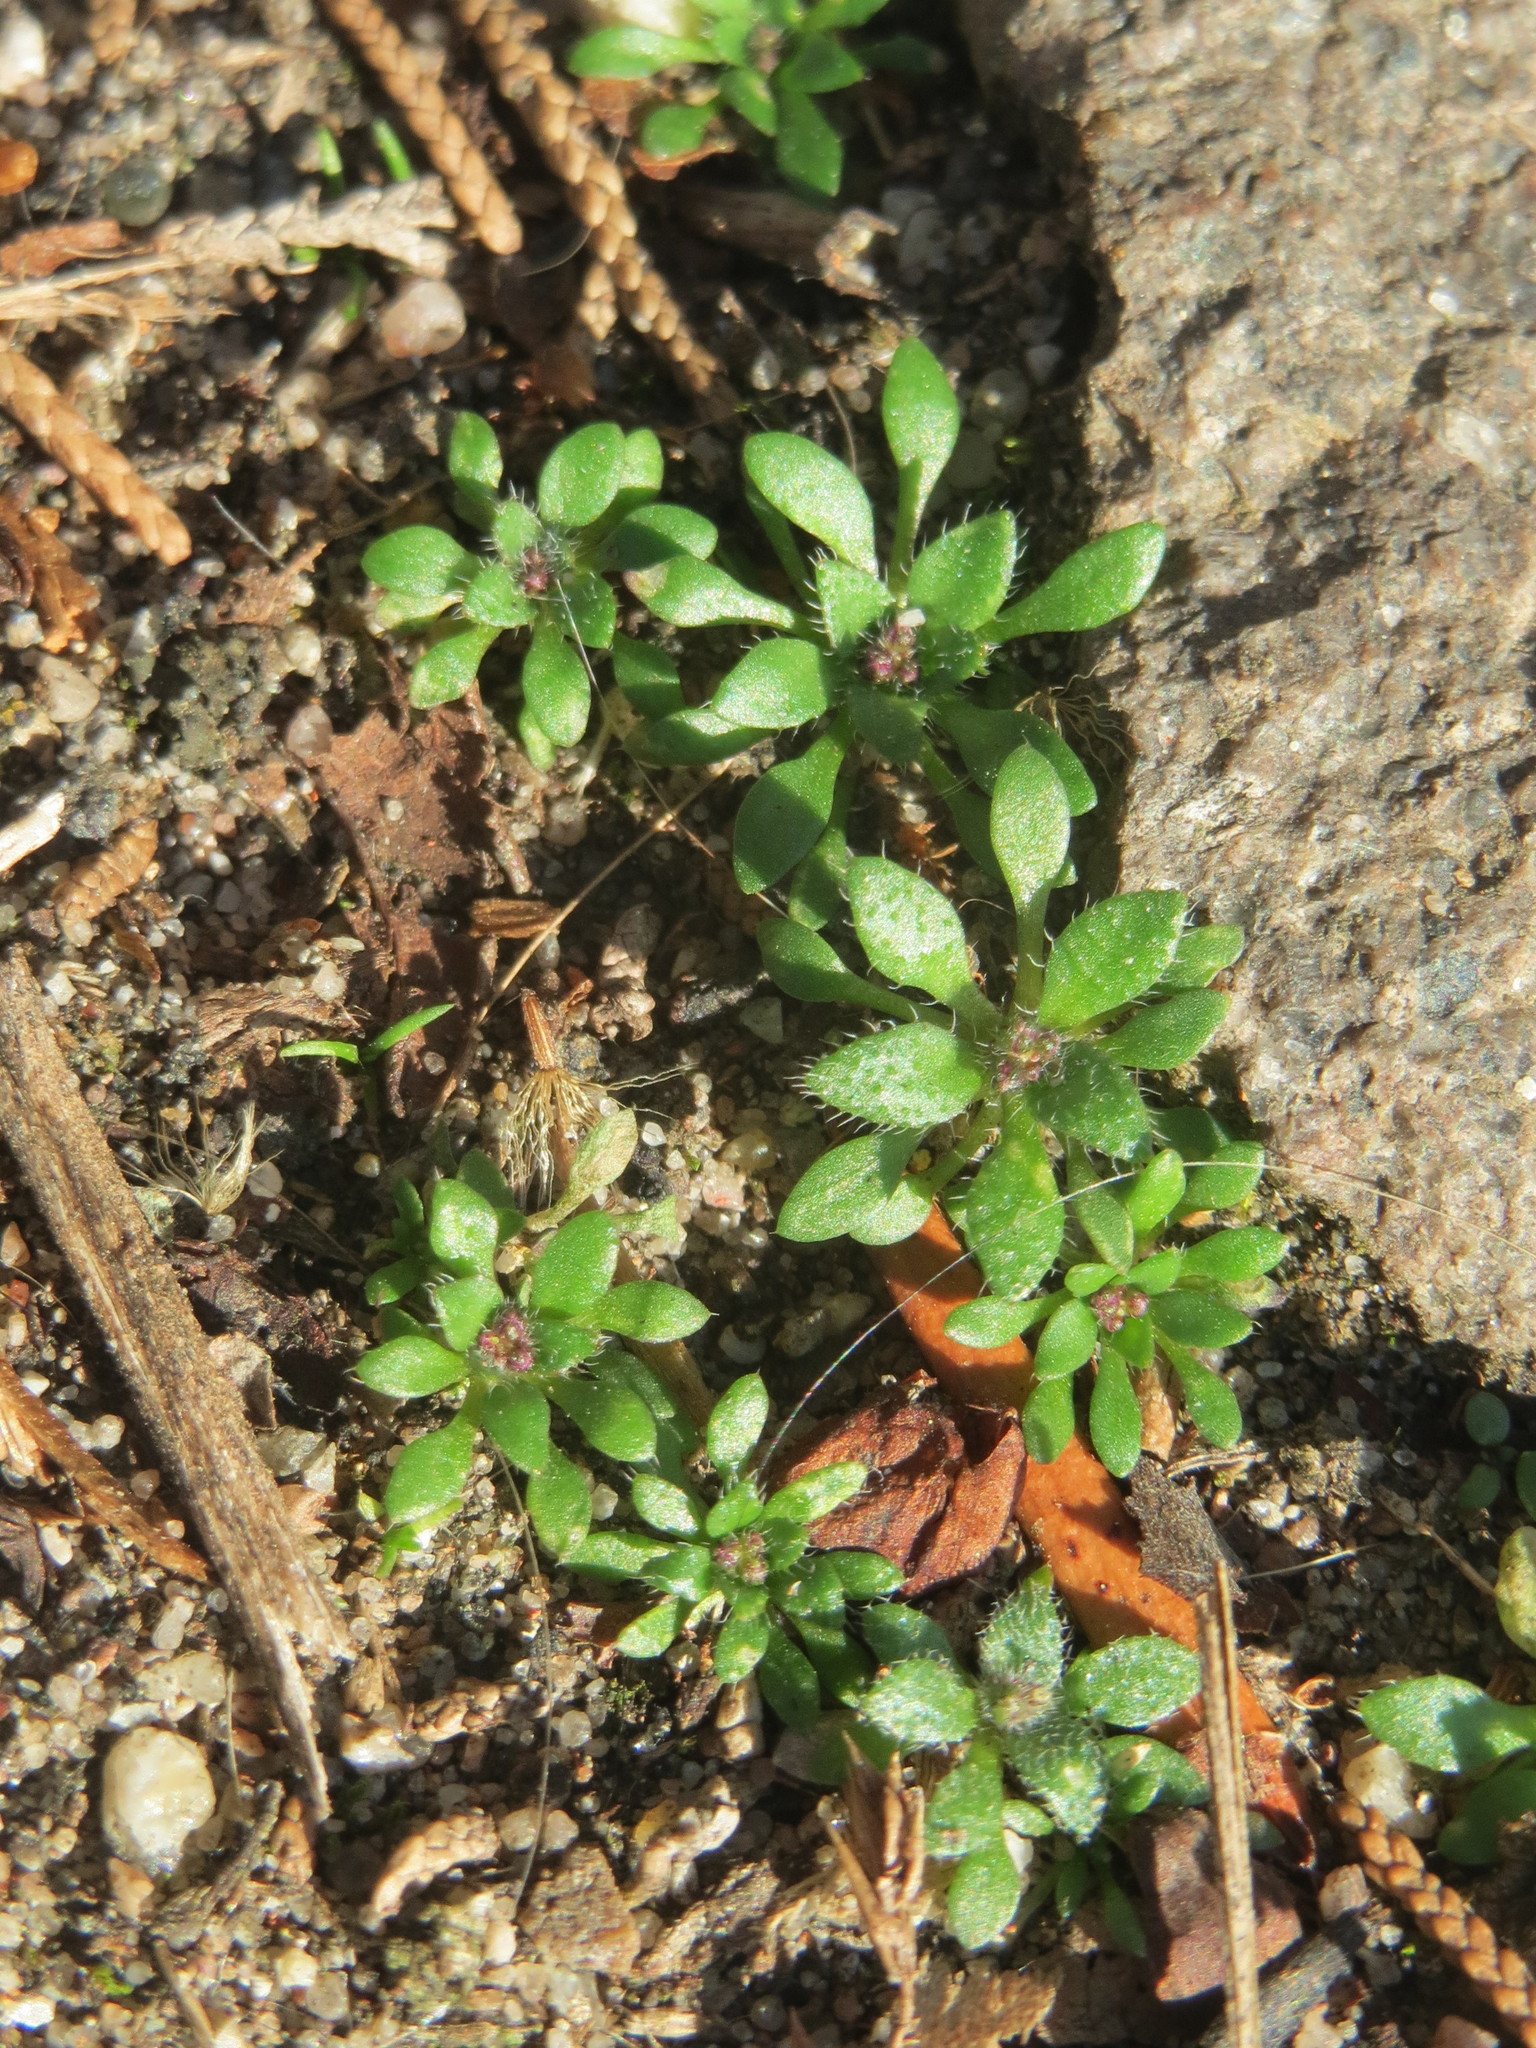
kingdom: Plantae
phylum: Tracheophyta
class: Magnoliopsida
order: Brassicales
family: Brassicaceae
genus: Draba
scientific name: Draba verna
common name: Spring draba
